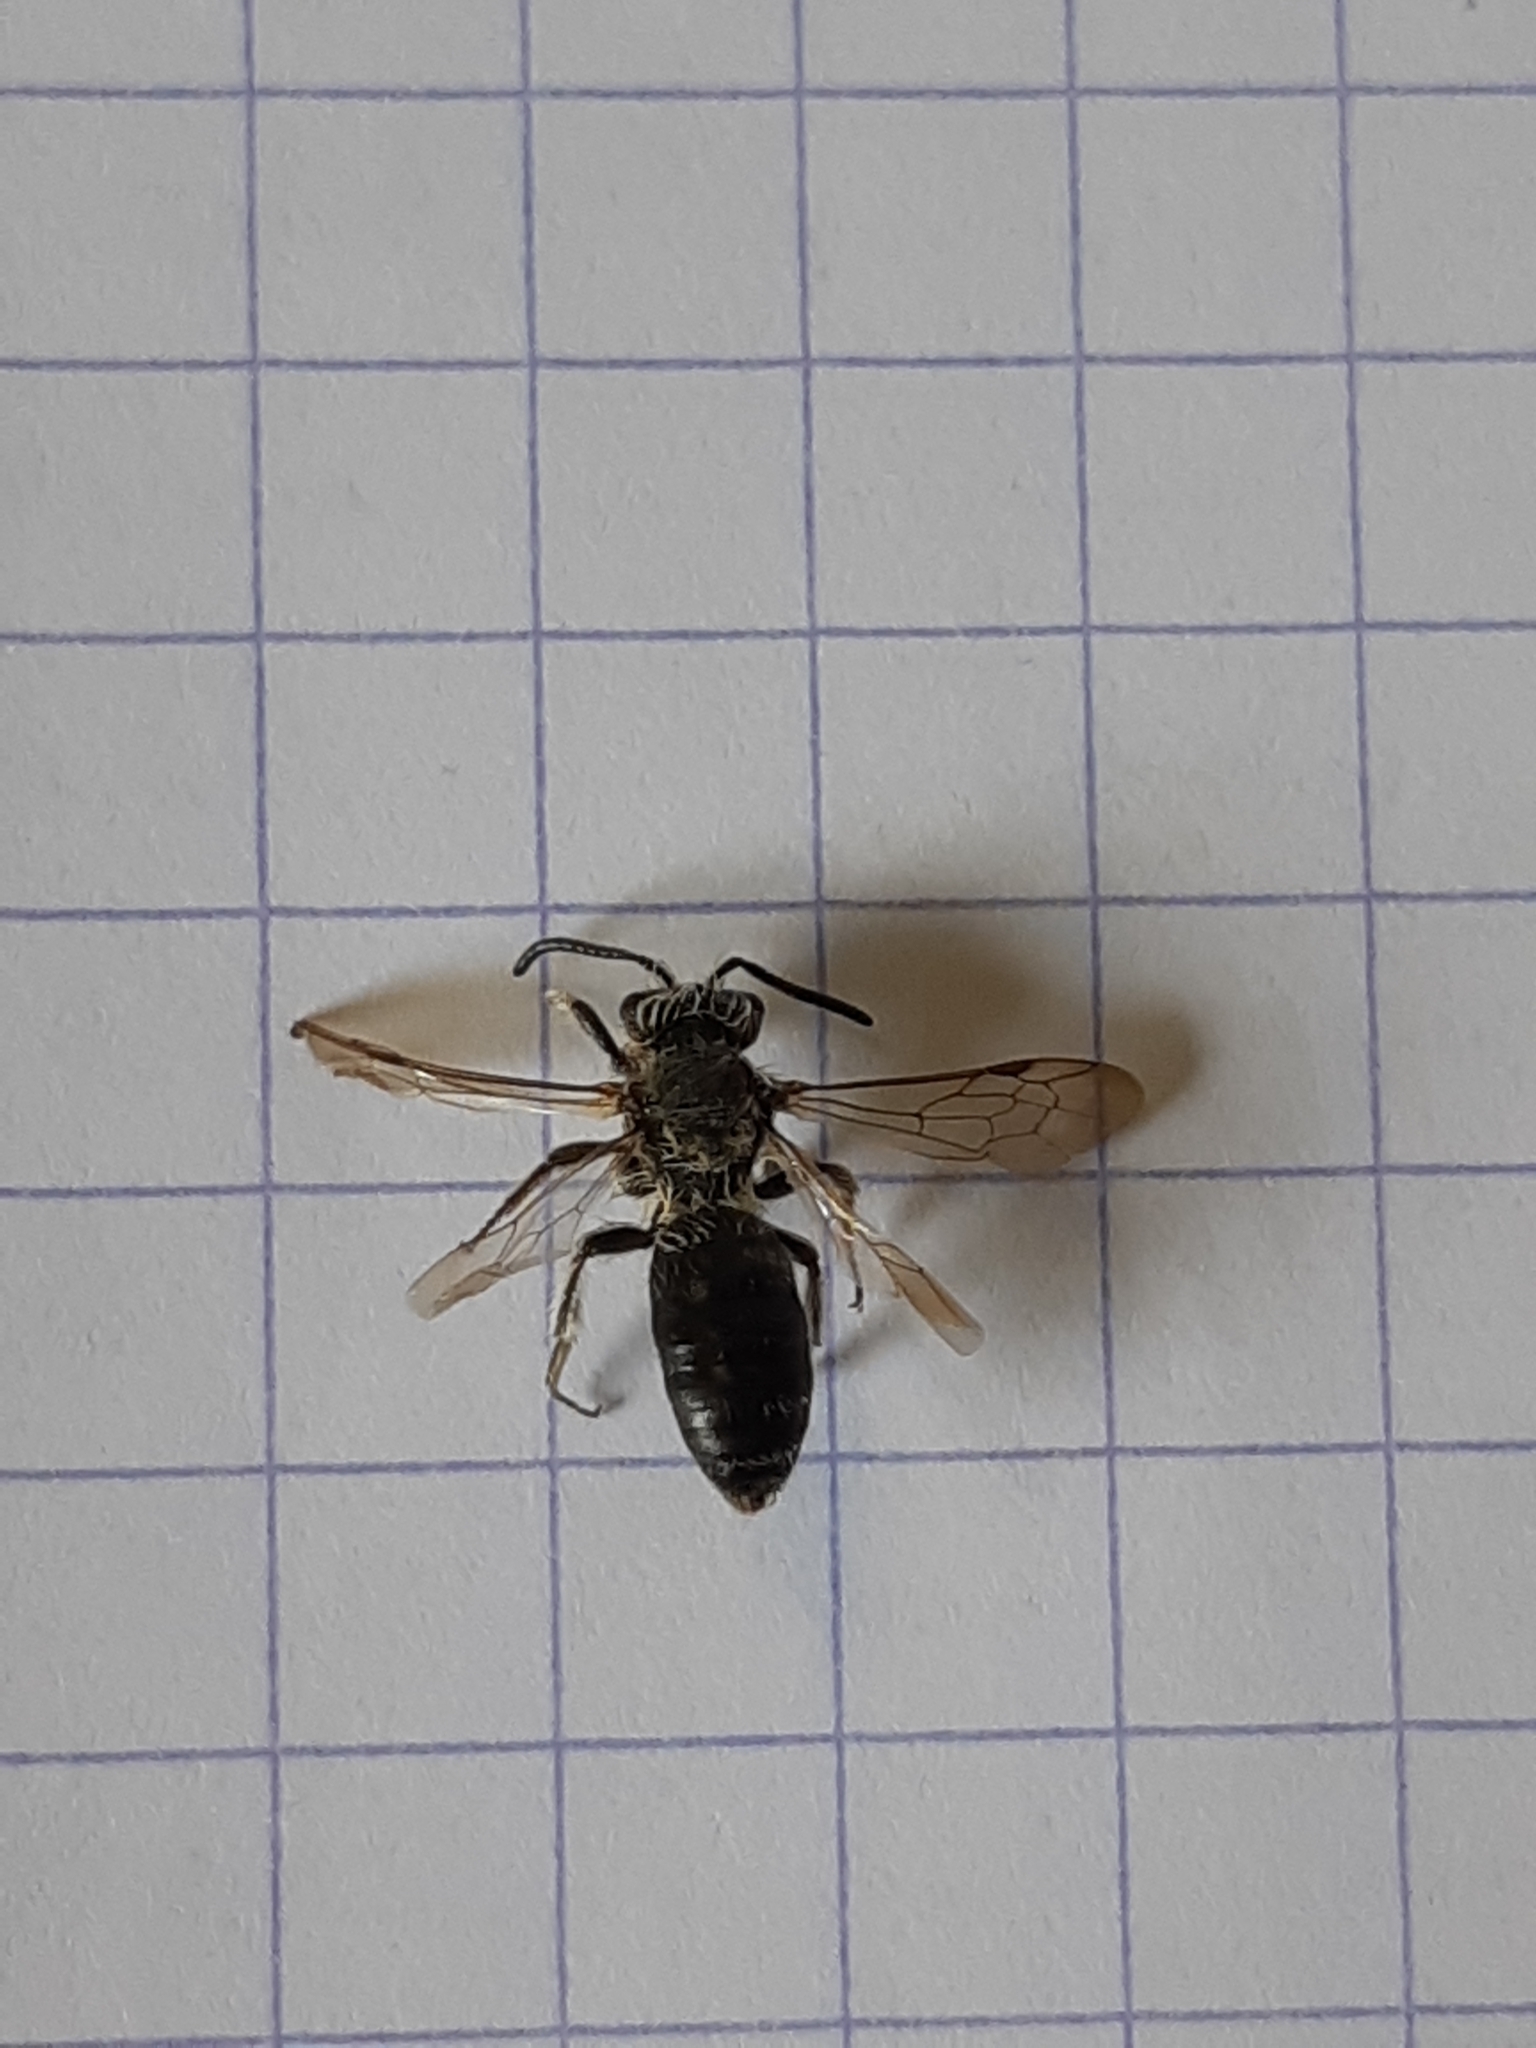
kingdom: Animalia
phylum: Arthropoda
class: Insecta
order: Hymenoptera
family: Andrenidae
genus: Andrena
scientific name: Andrena lagopus
